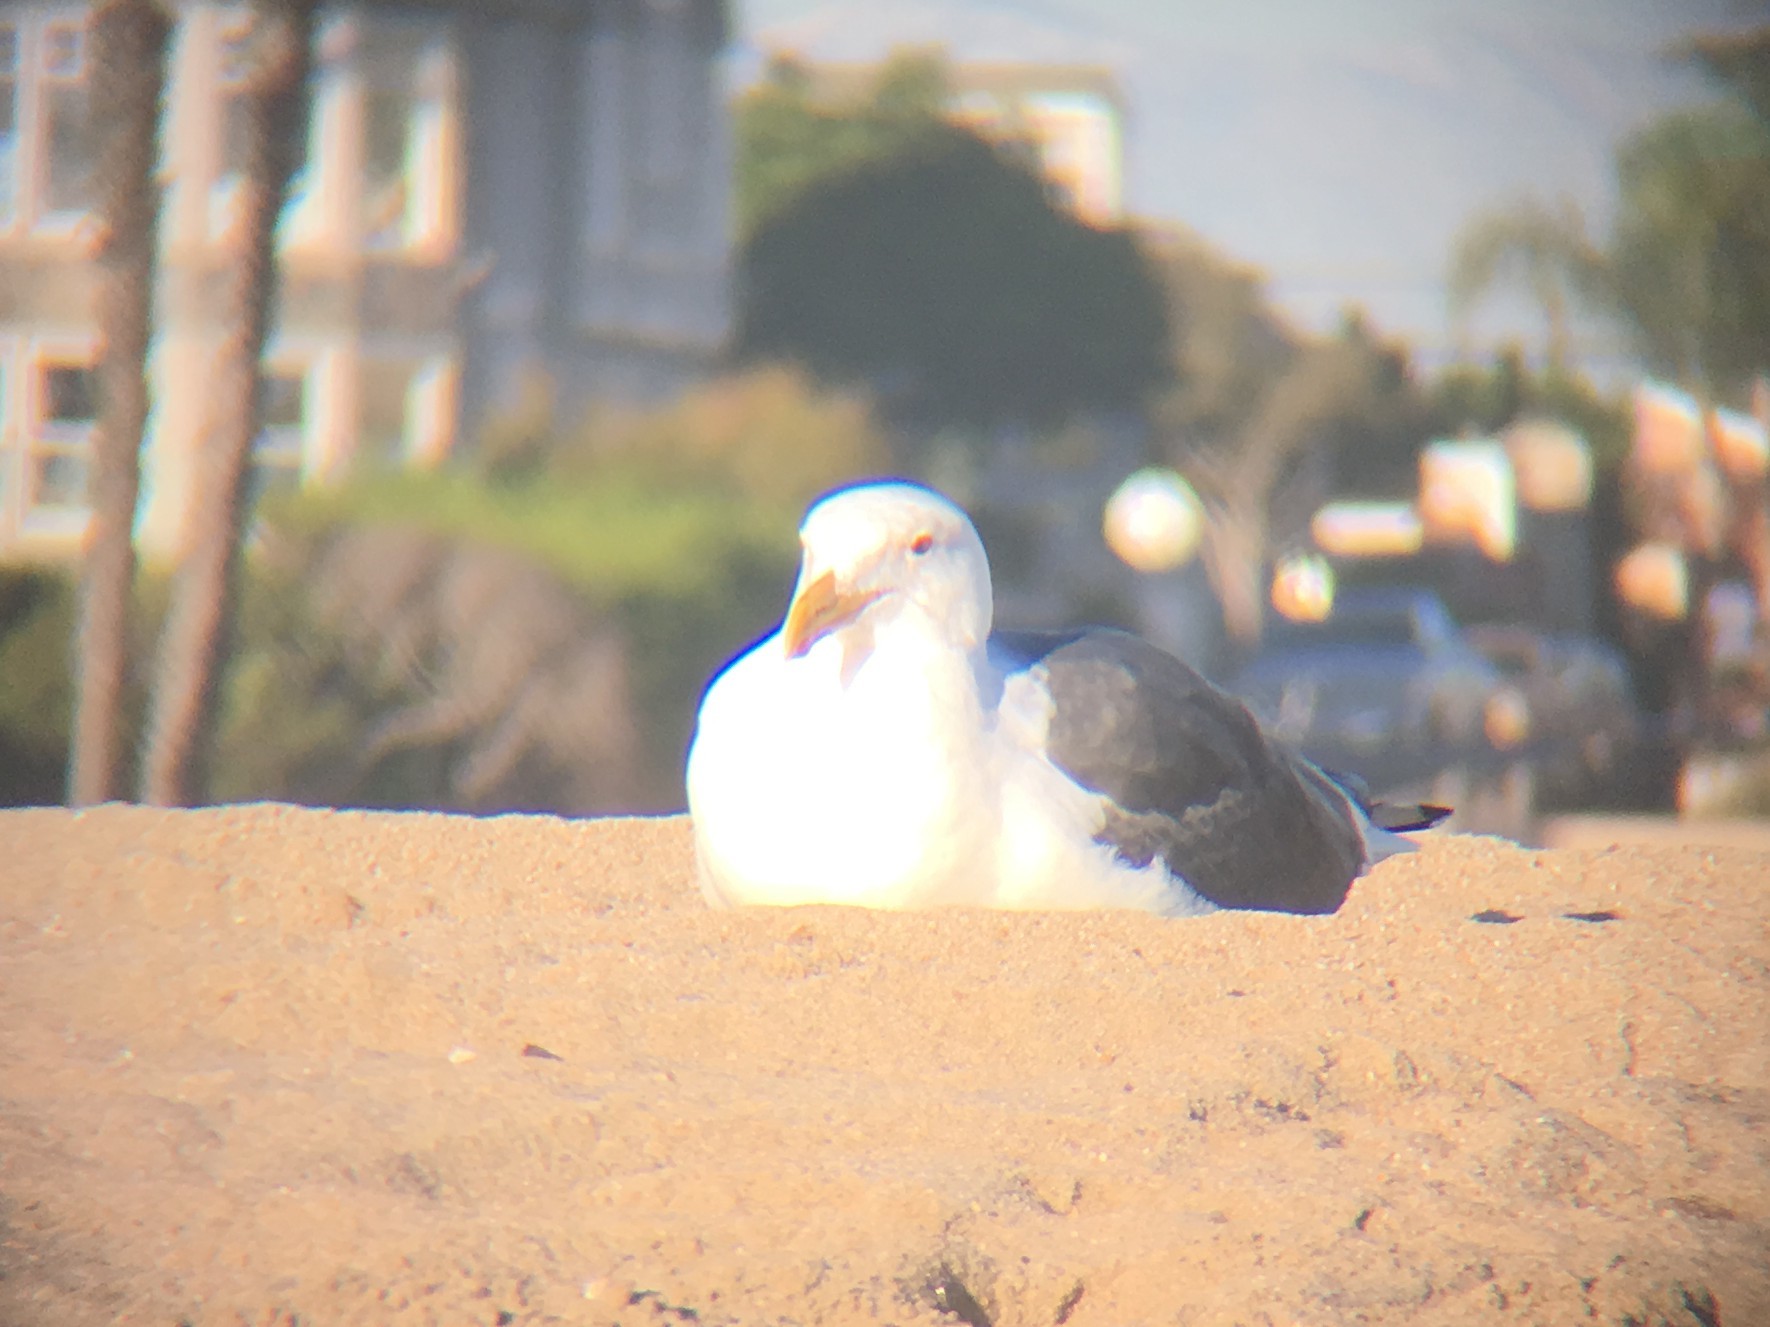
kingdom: Animalia
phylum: Chordata
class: Aves
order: Charadriiformes
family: Laridae
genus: Larus
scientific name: Larus occidentalis
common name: Western gull
